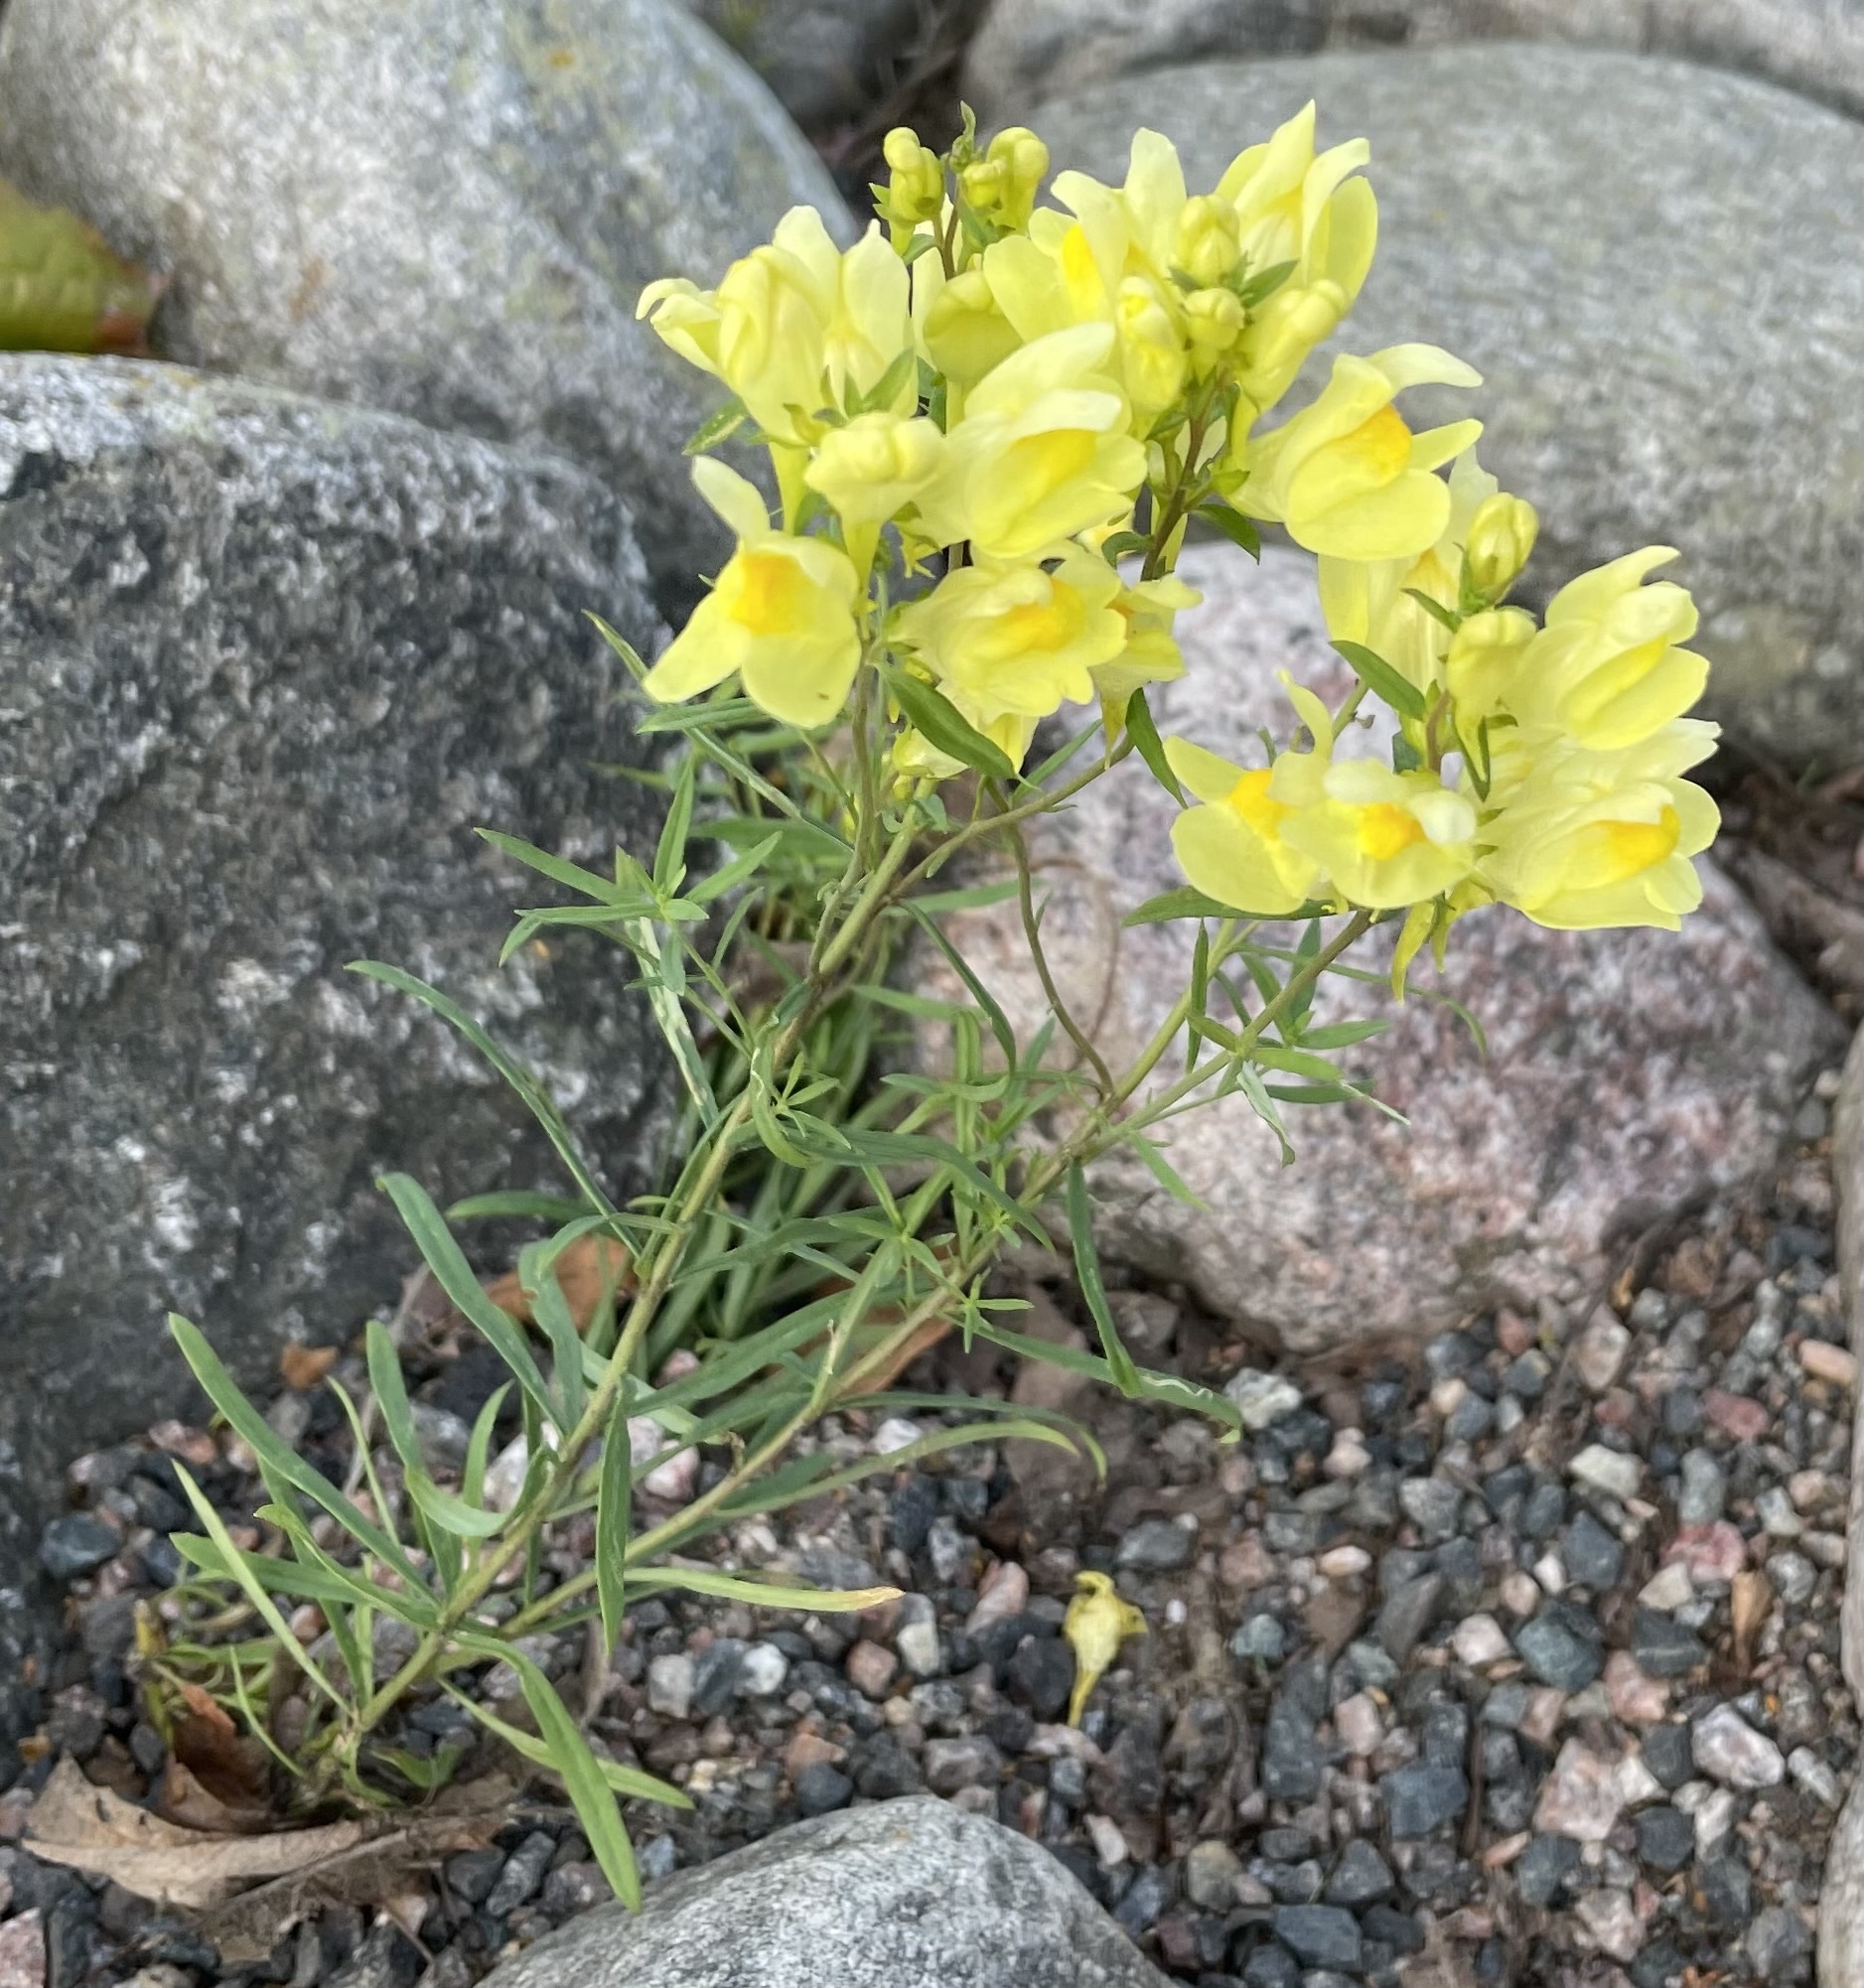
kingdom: Plantae
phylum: Tracheophyta
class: Magnoliopsida
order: Lamiales
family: Plantaginaceae
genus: Linaria
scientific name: Linaria vulgaris
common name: Butter and eggs
